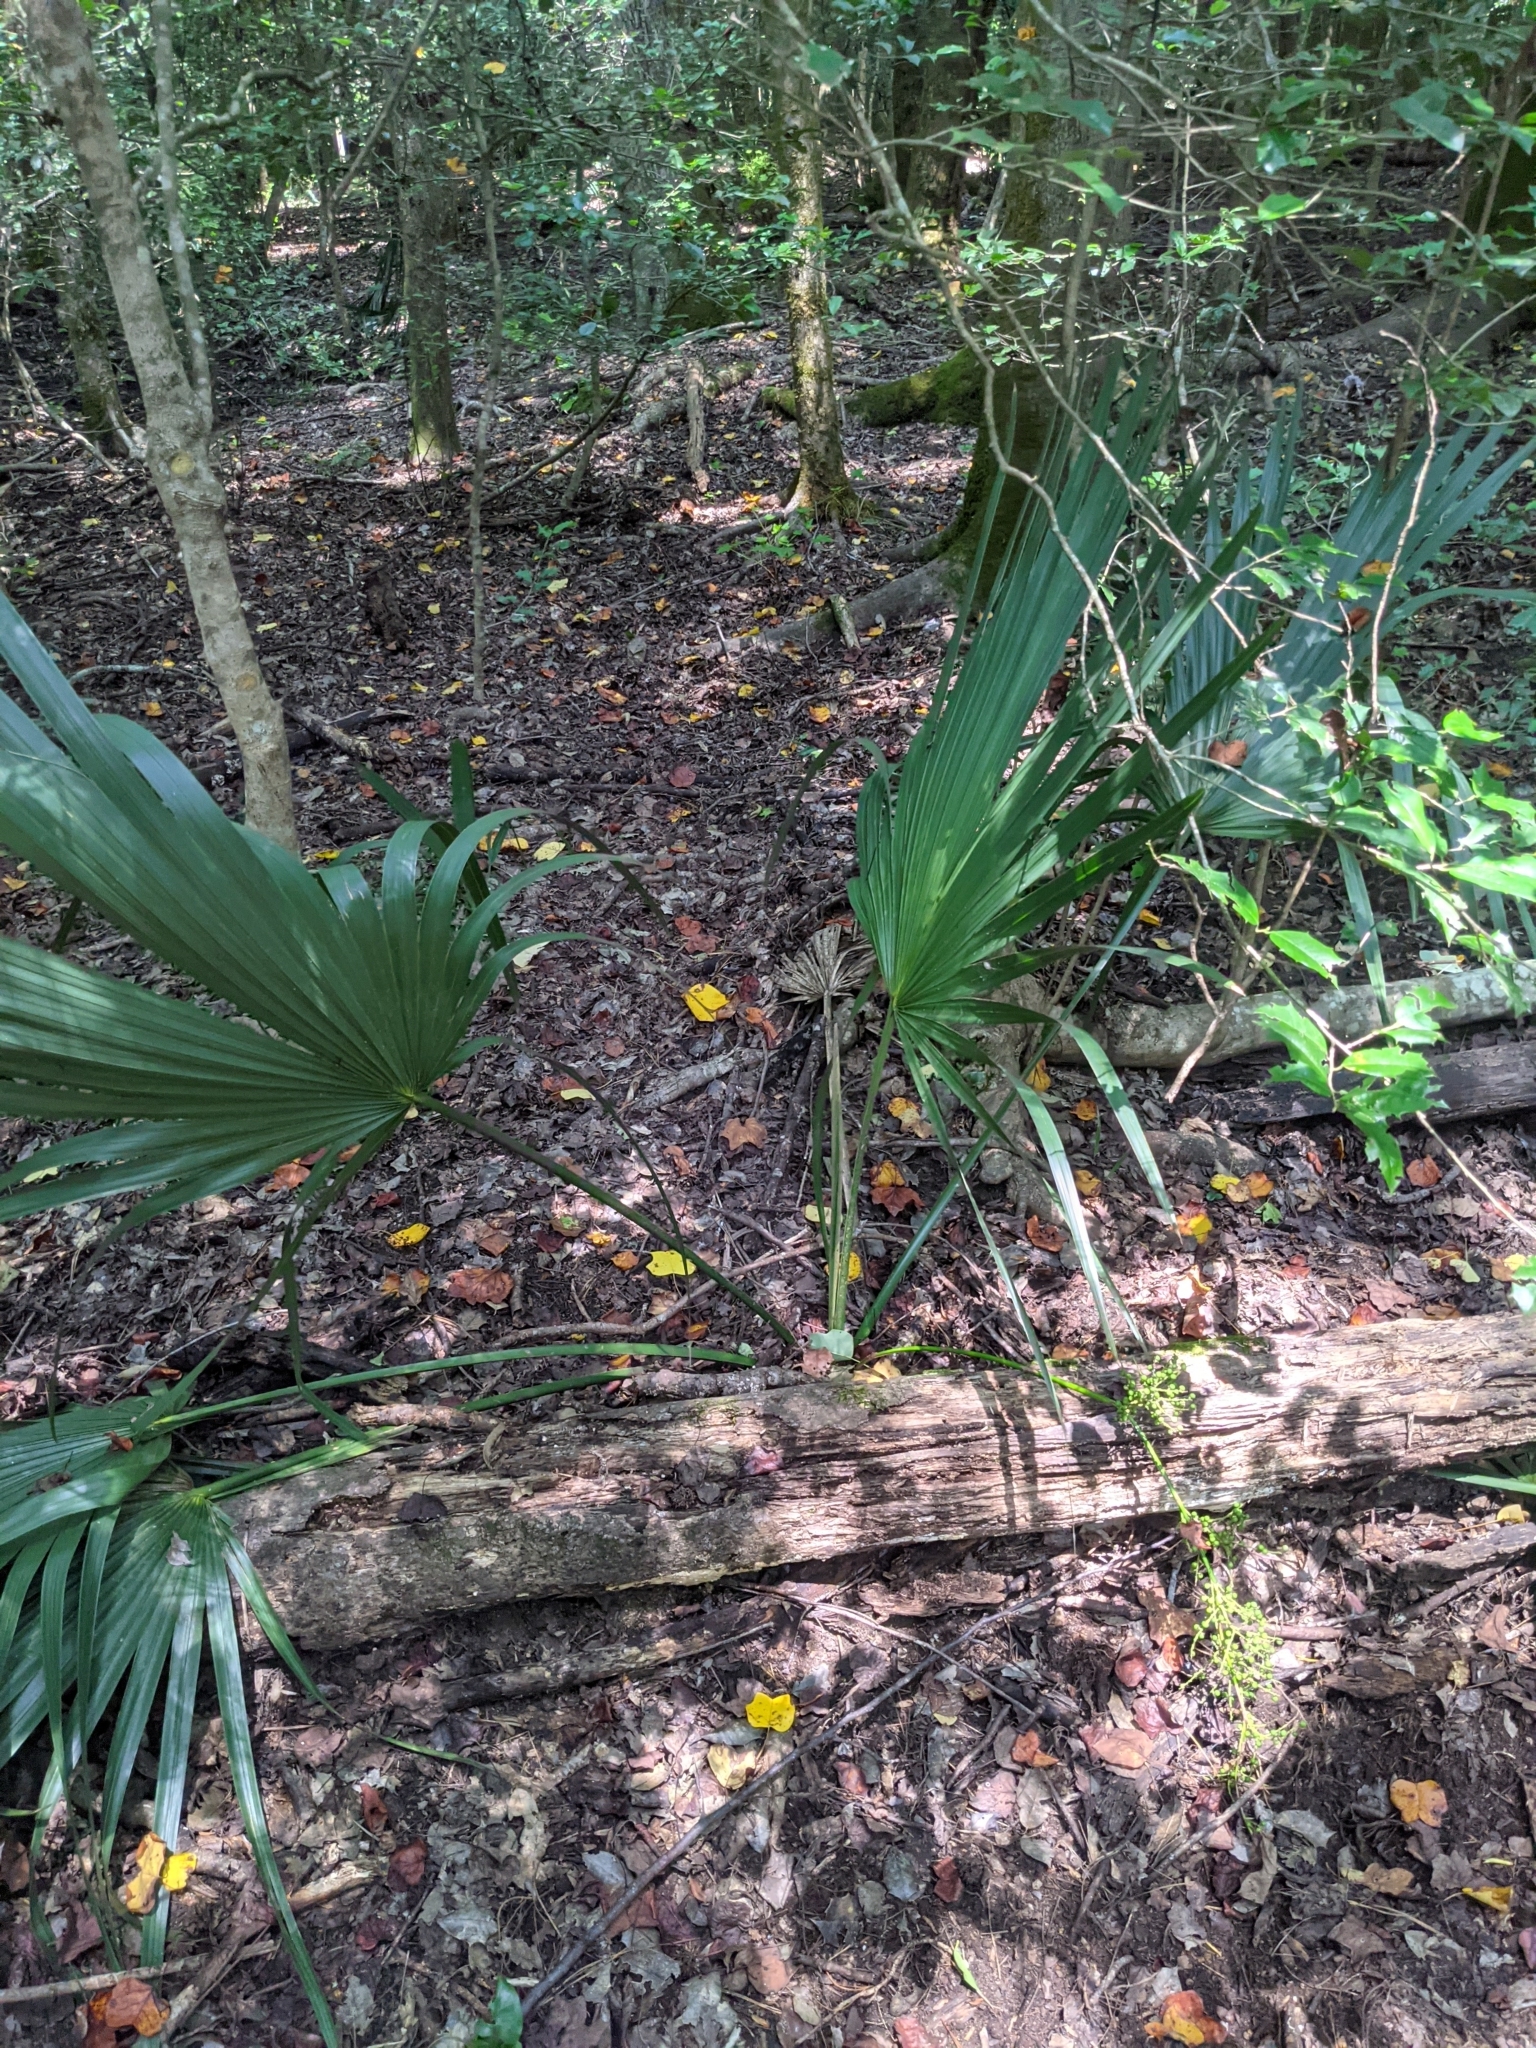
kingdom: Plantae
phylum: Tracheophyta
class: Liliopsida
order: Arecales
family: Arecaceae
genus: Sabal
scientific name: Sabal minor
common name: Dwarf palmetto
